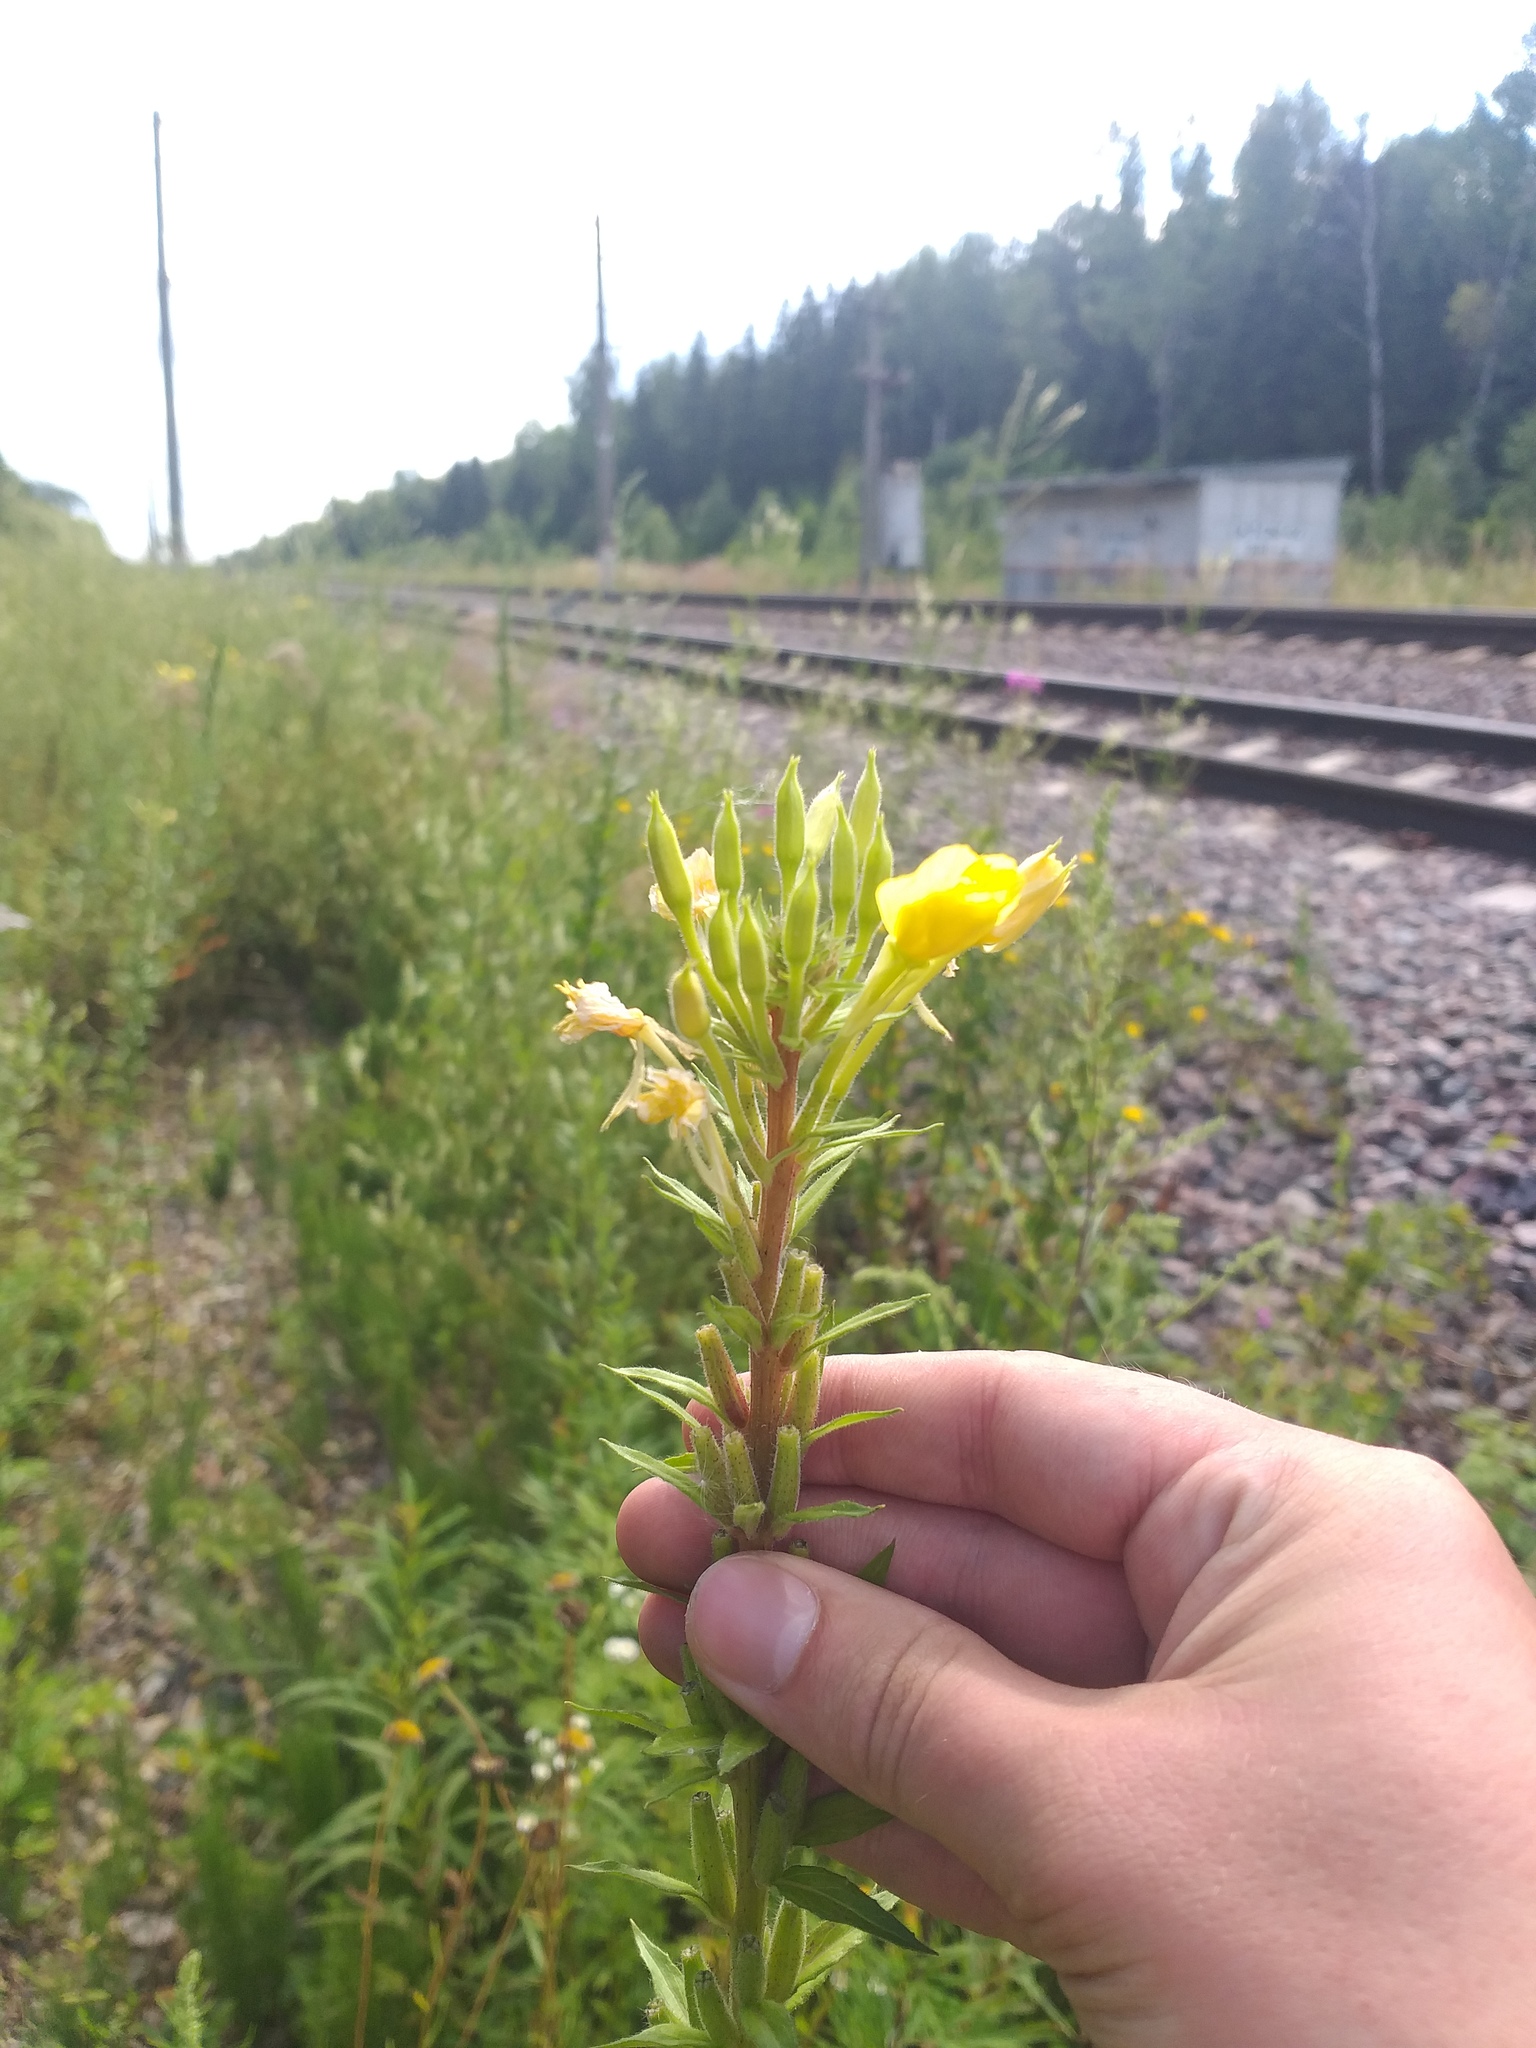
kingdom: Plantae
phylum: Tracheophyta
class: Magnoliopsida
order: Myrtales
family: Onagraceae
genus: Oenothera
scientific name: Oenothera rubricaulis
